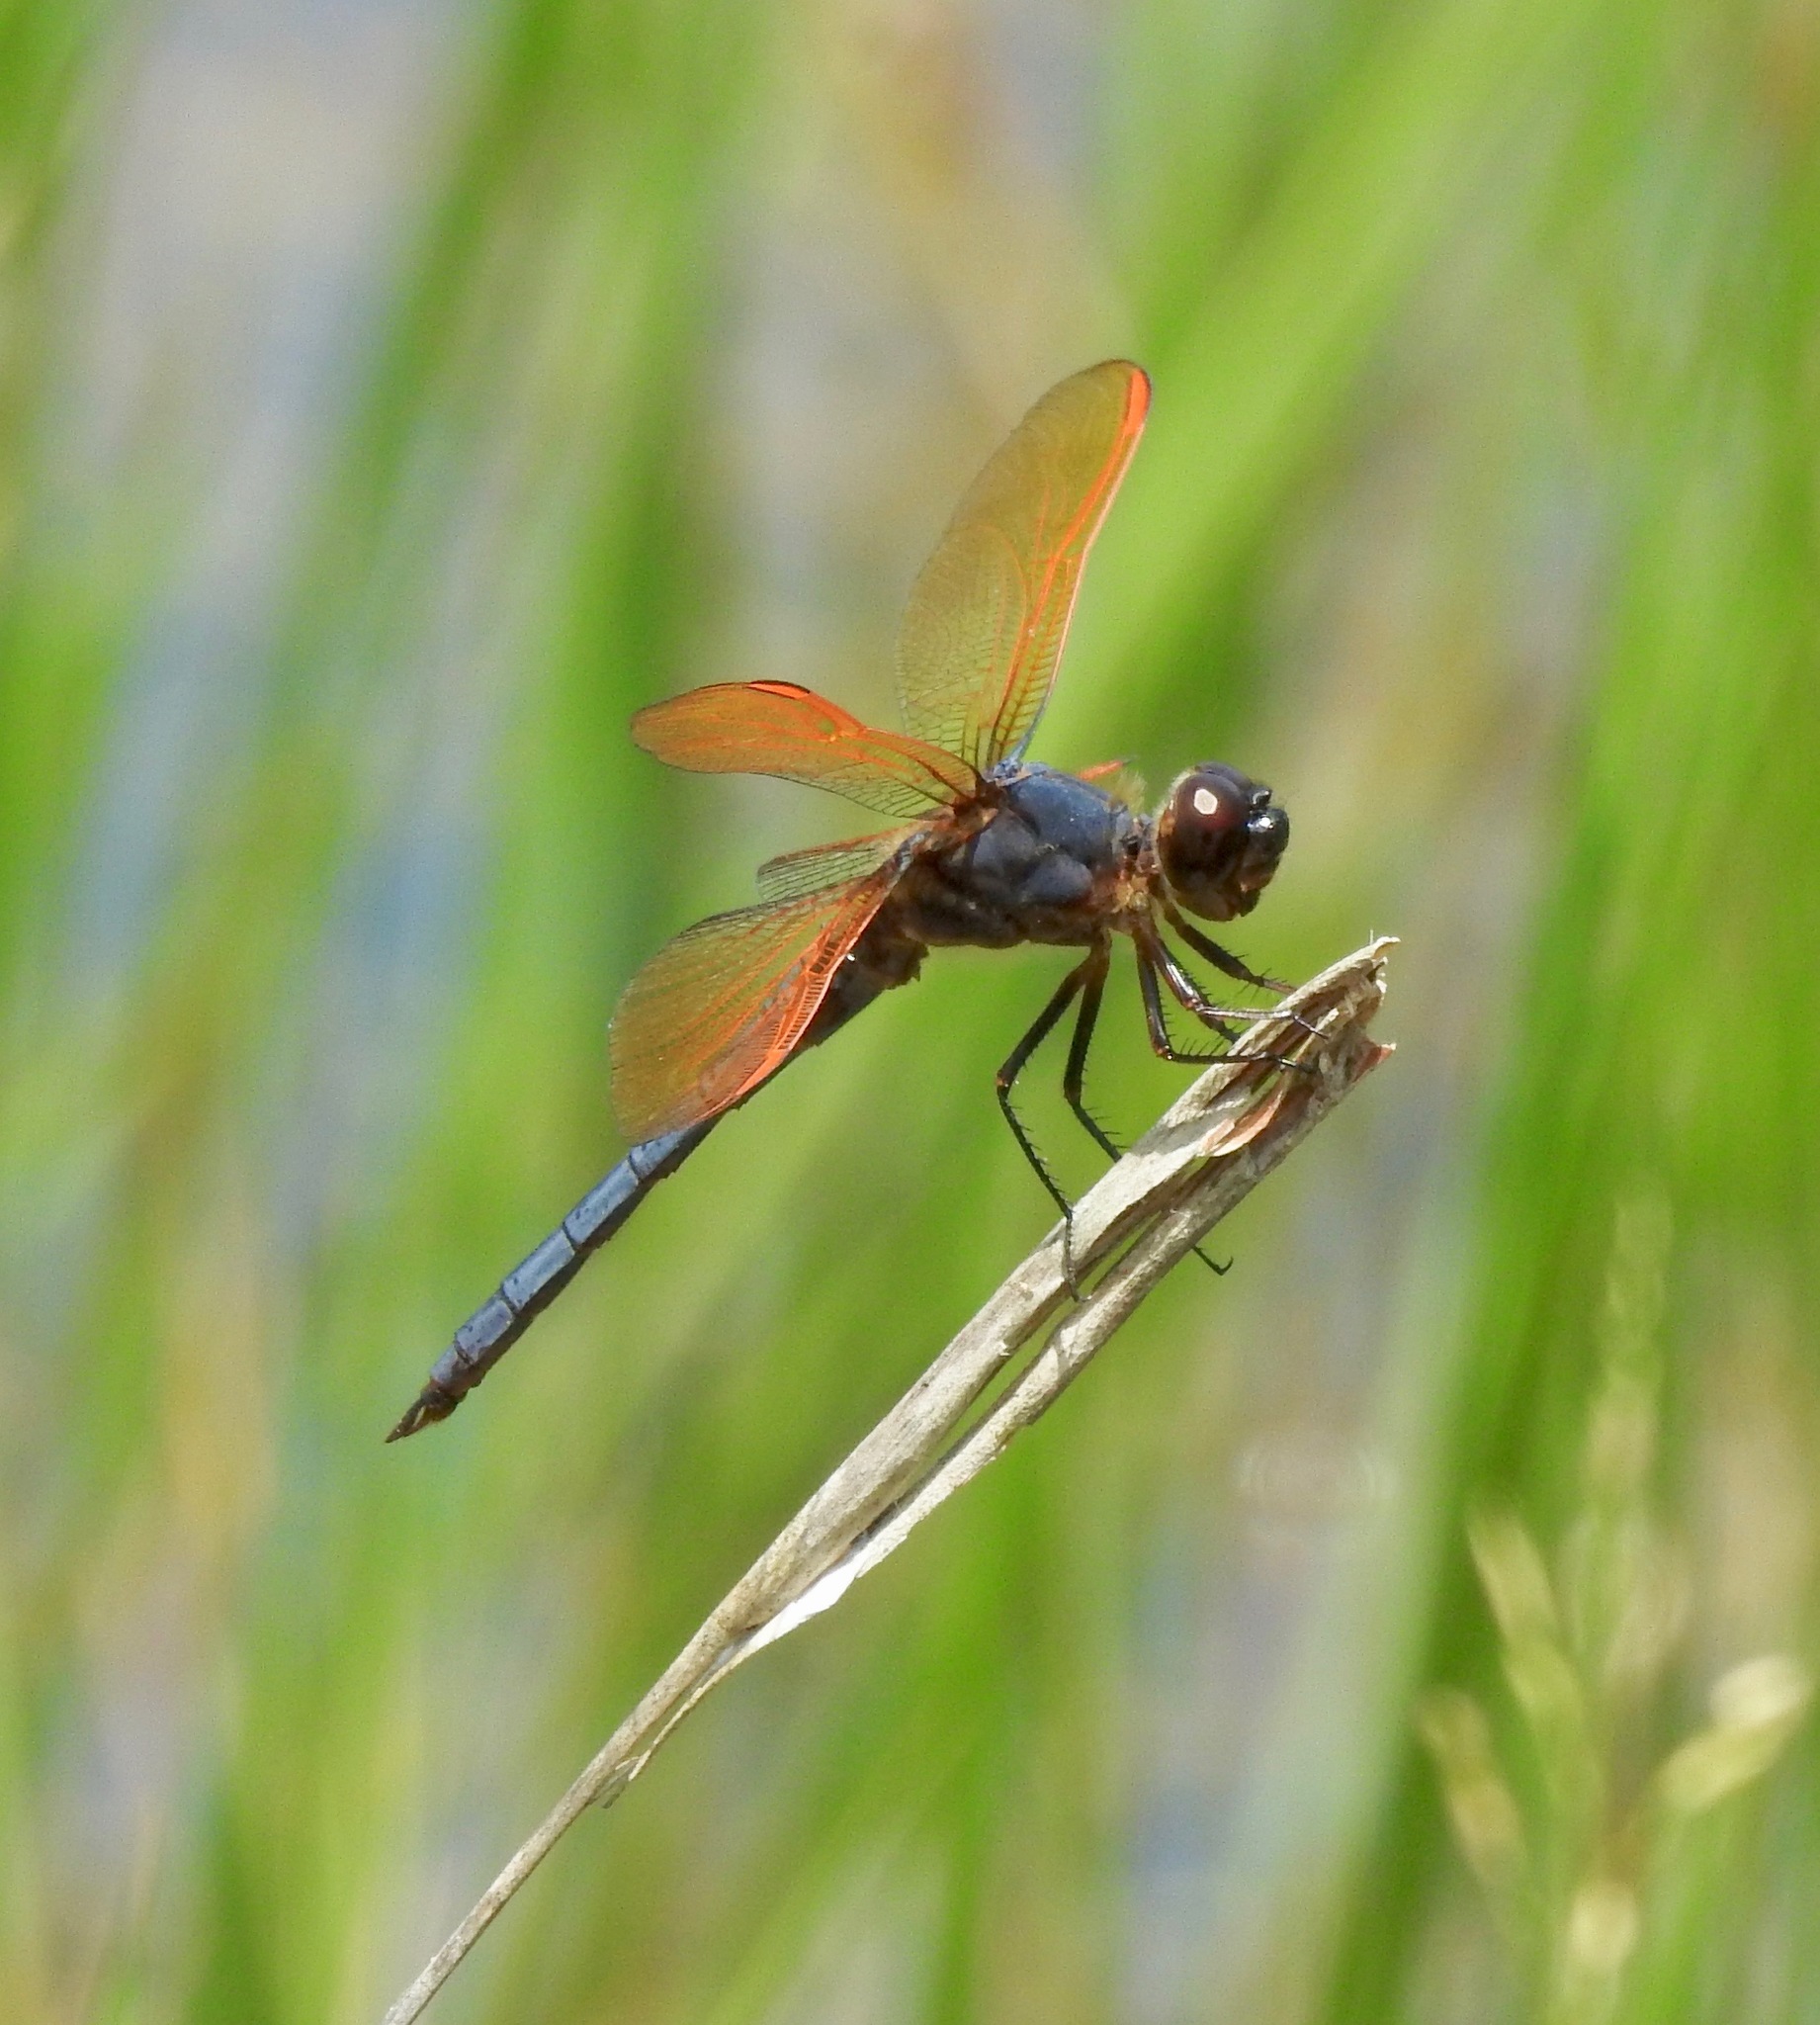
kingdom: Animalia
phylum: Arthropoda
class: Insecta
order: Odonata
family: Libellulidae
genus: Libellula
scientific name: Libellula jesseana
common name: Purple skimmer
